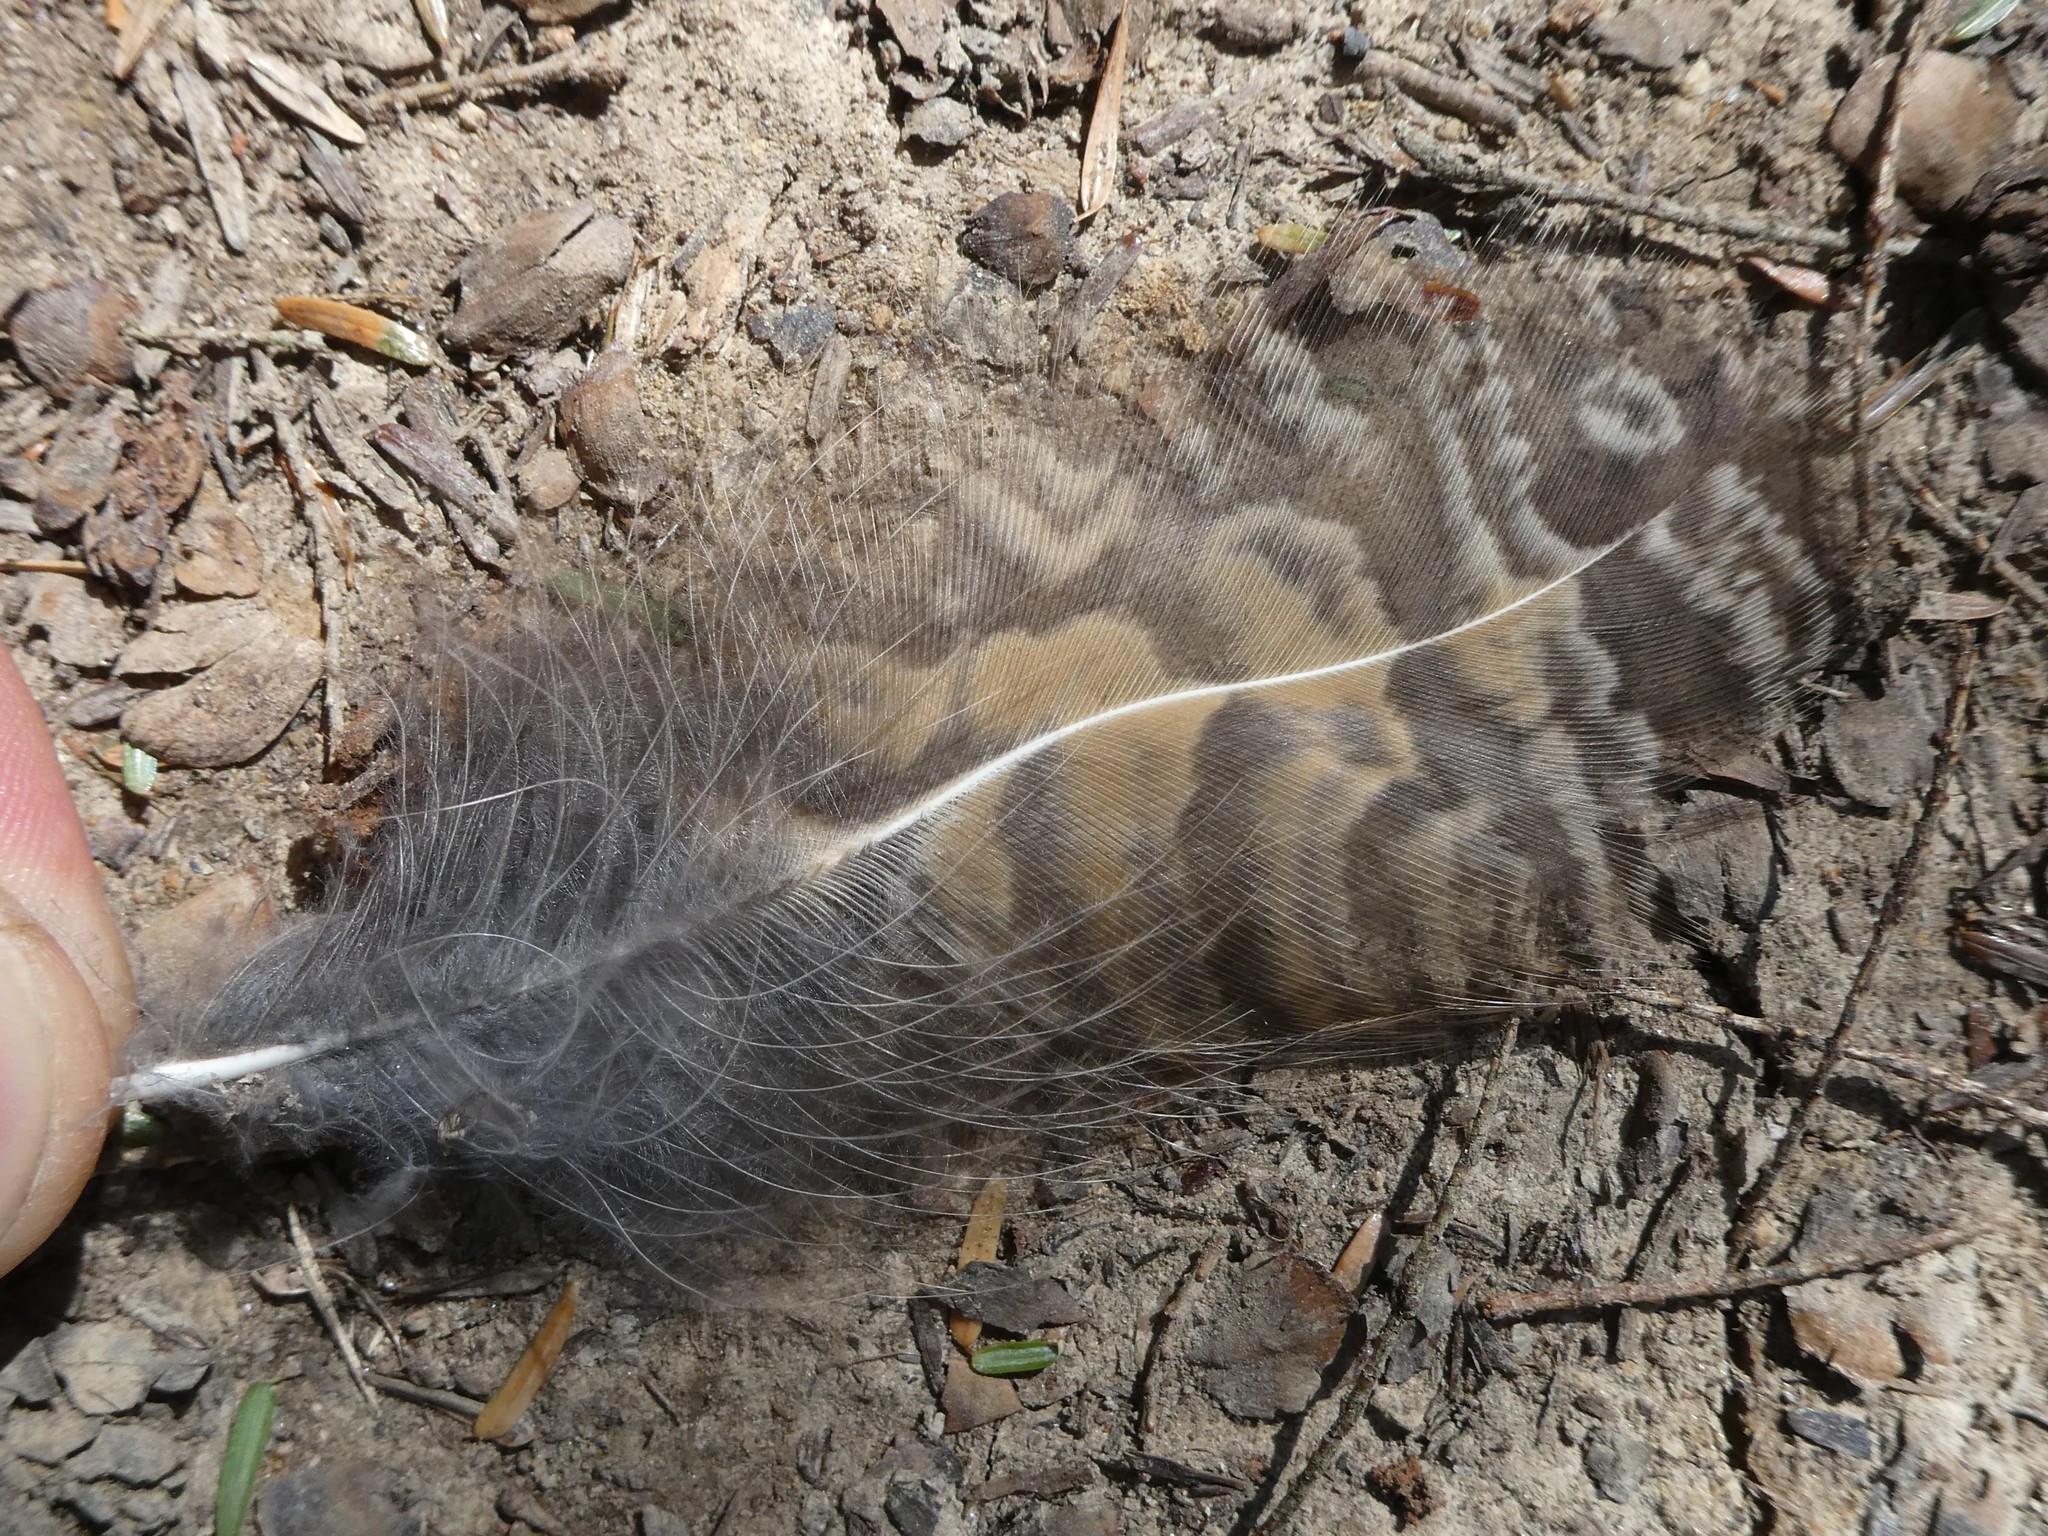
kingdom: Animalia
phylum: Chordata
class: Aves
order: Strigiformes
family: Strigidae
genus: Bubo
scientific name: Bubo virginianus
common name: Great horned owl
